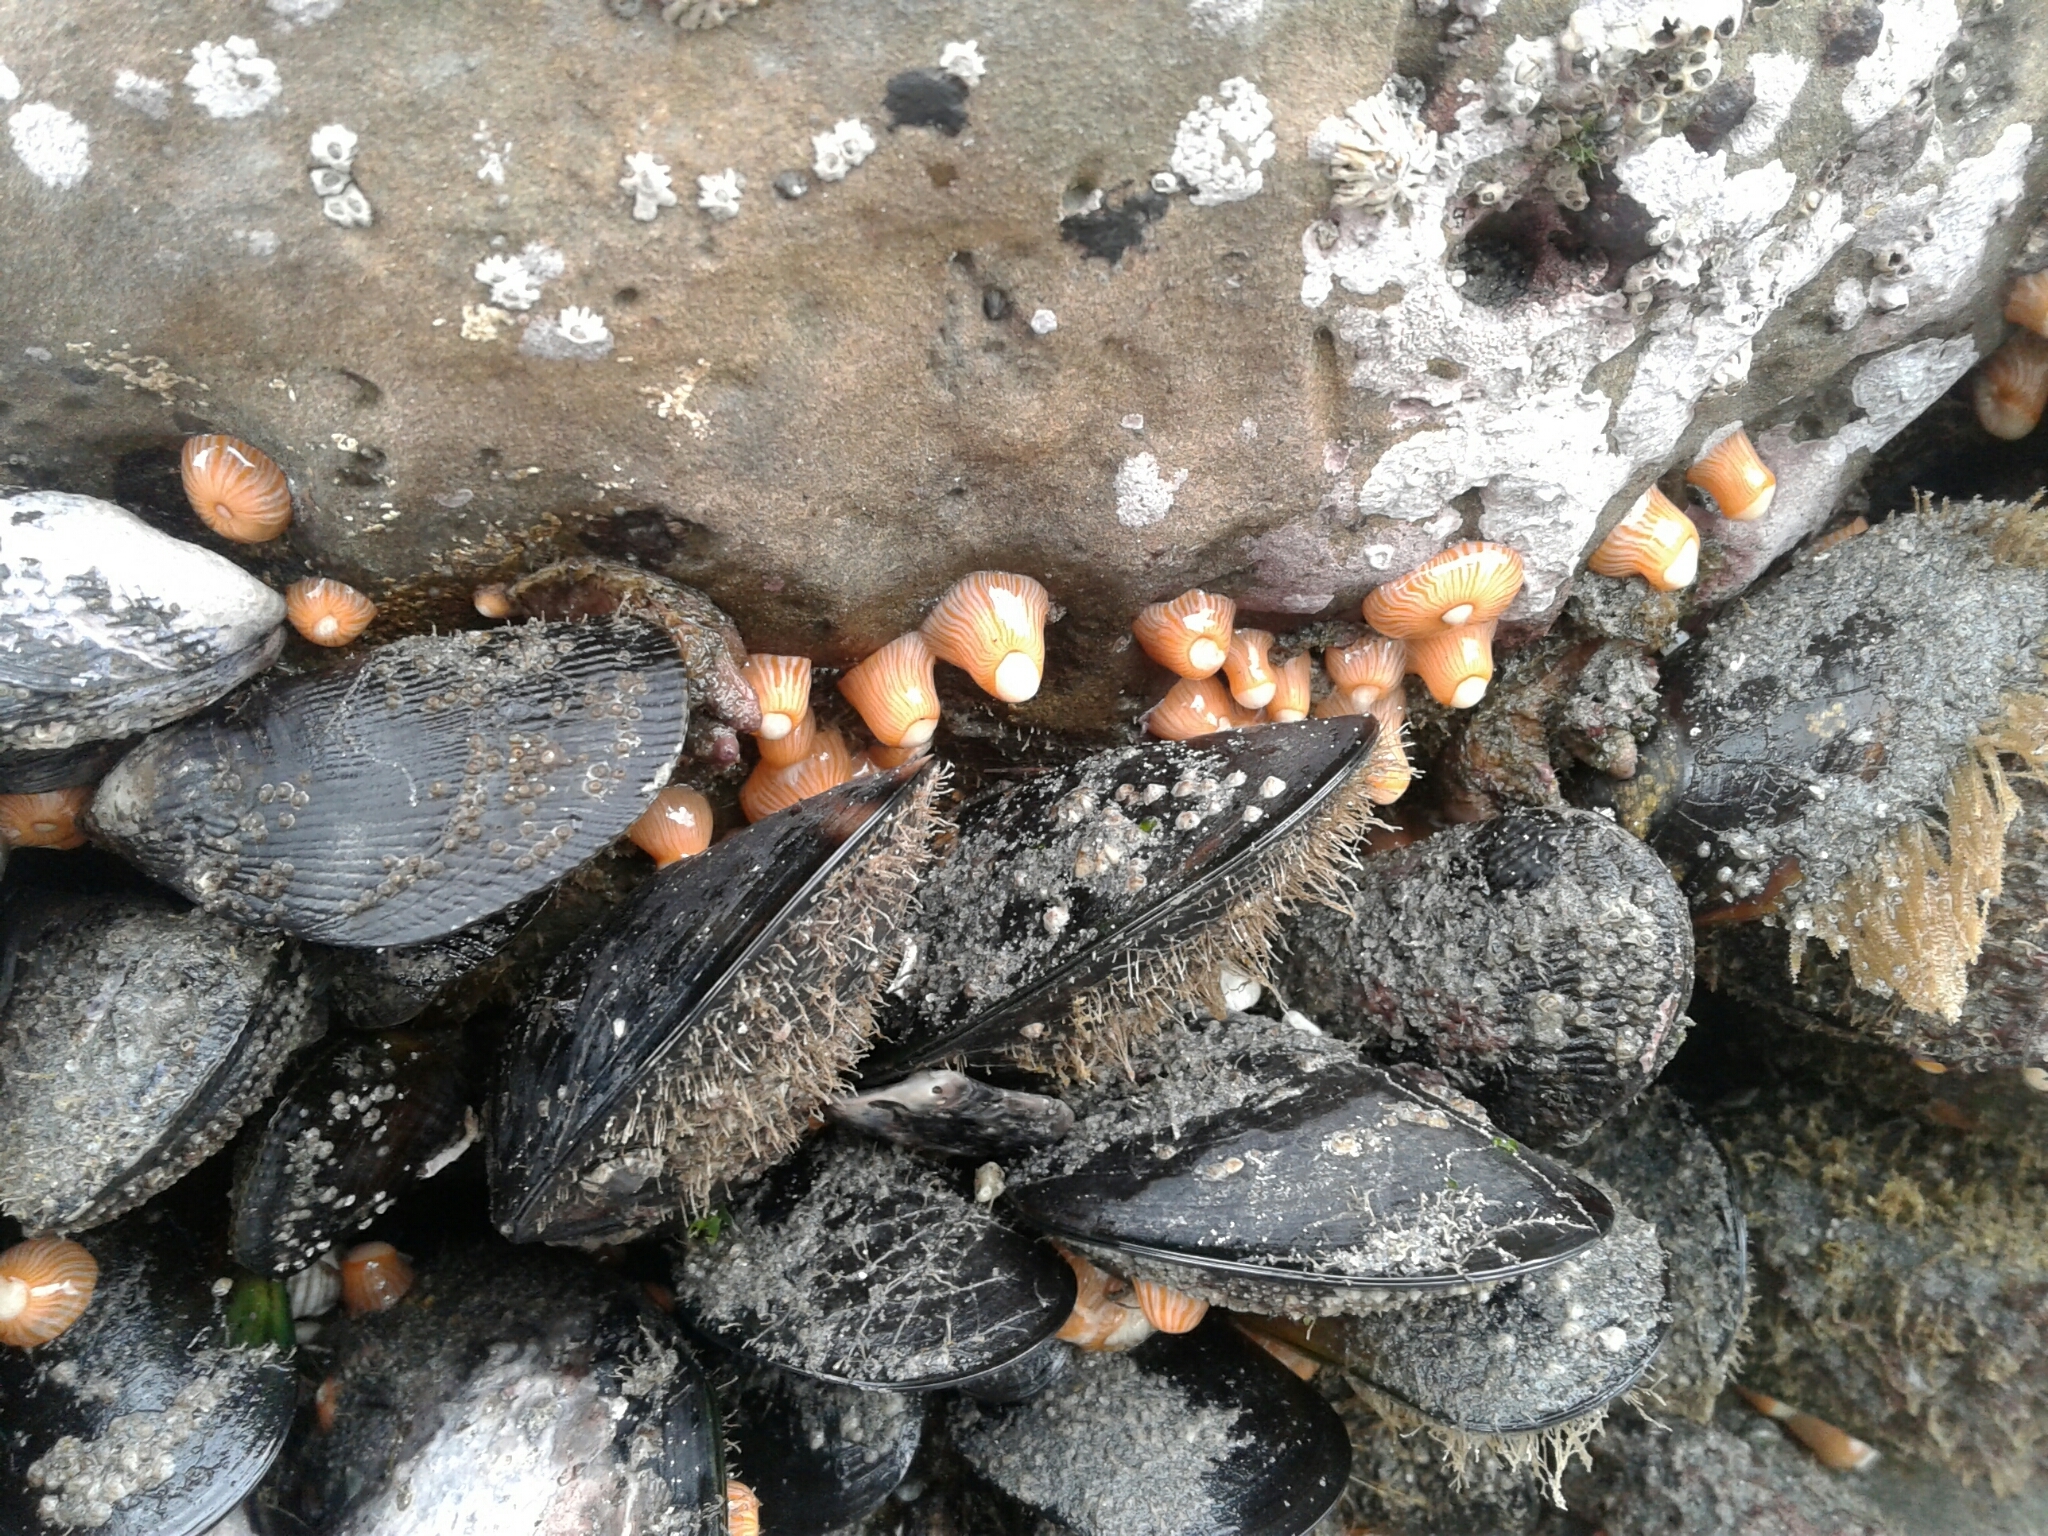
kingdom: Animalia
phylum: Cnidaria
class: Anthozoa
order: Actiniaria
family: Sagartiidae
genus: Anthothoe
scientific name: Anthothoe albocincta
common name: Orange striped anemone
